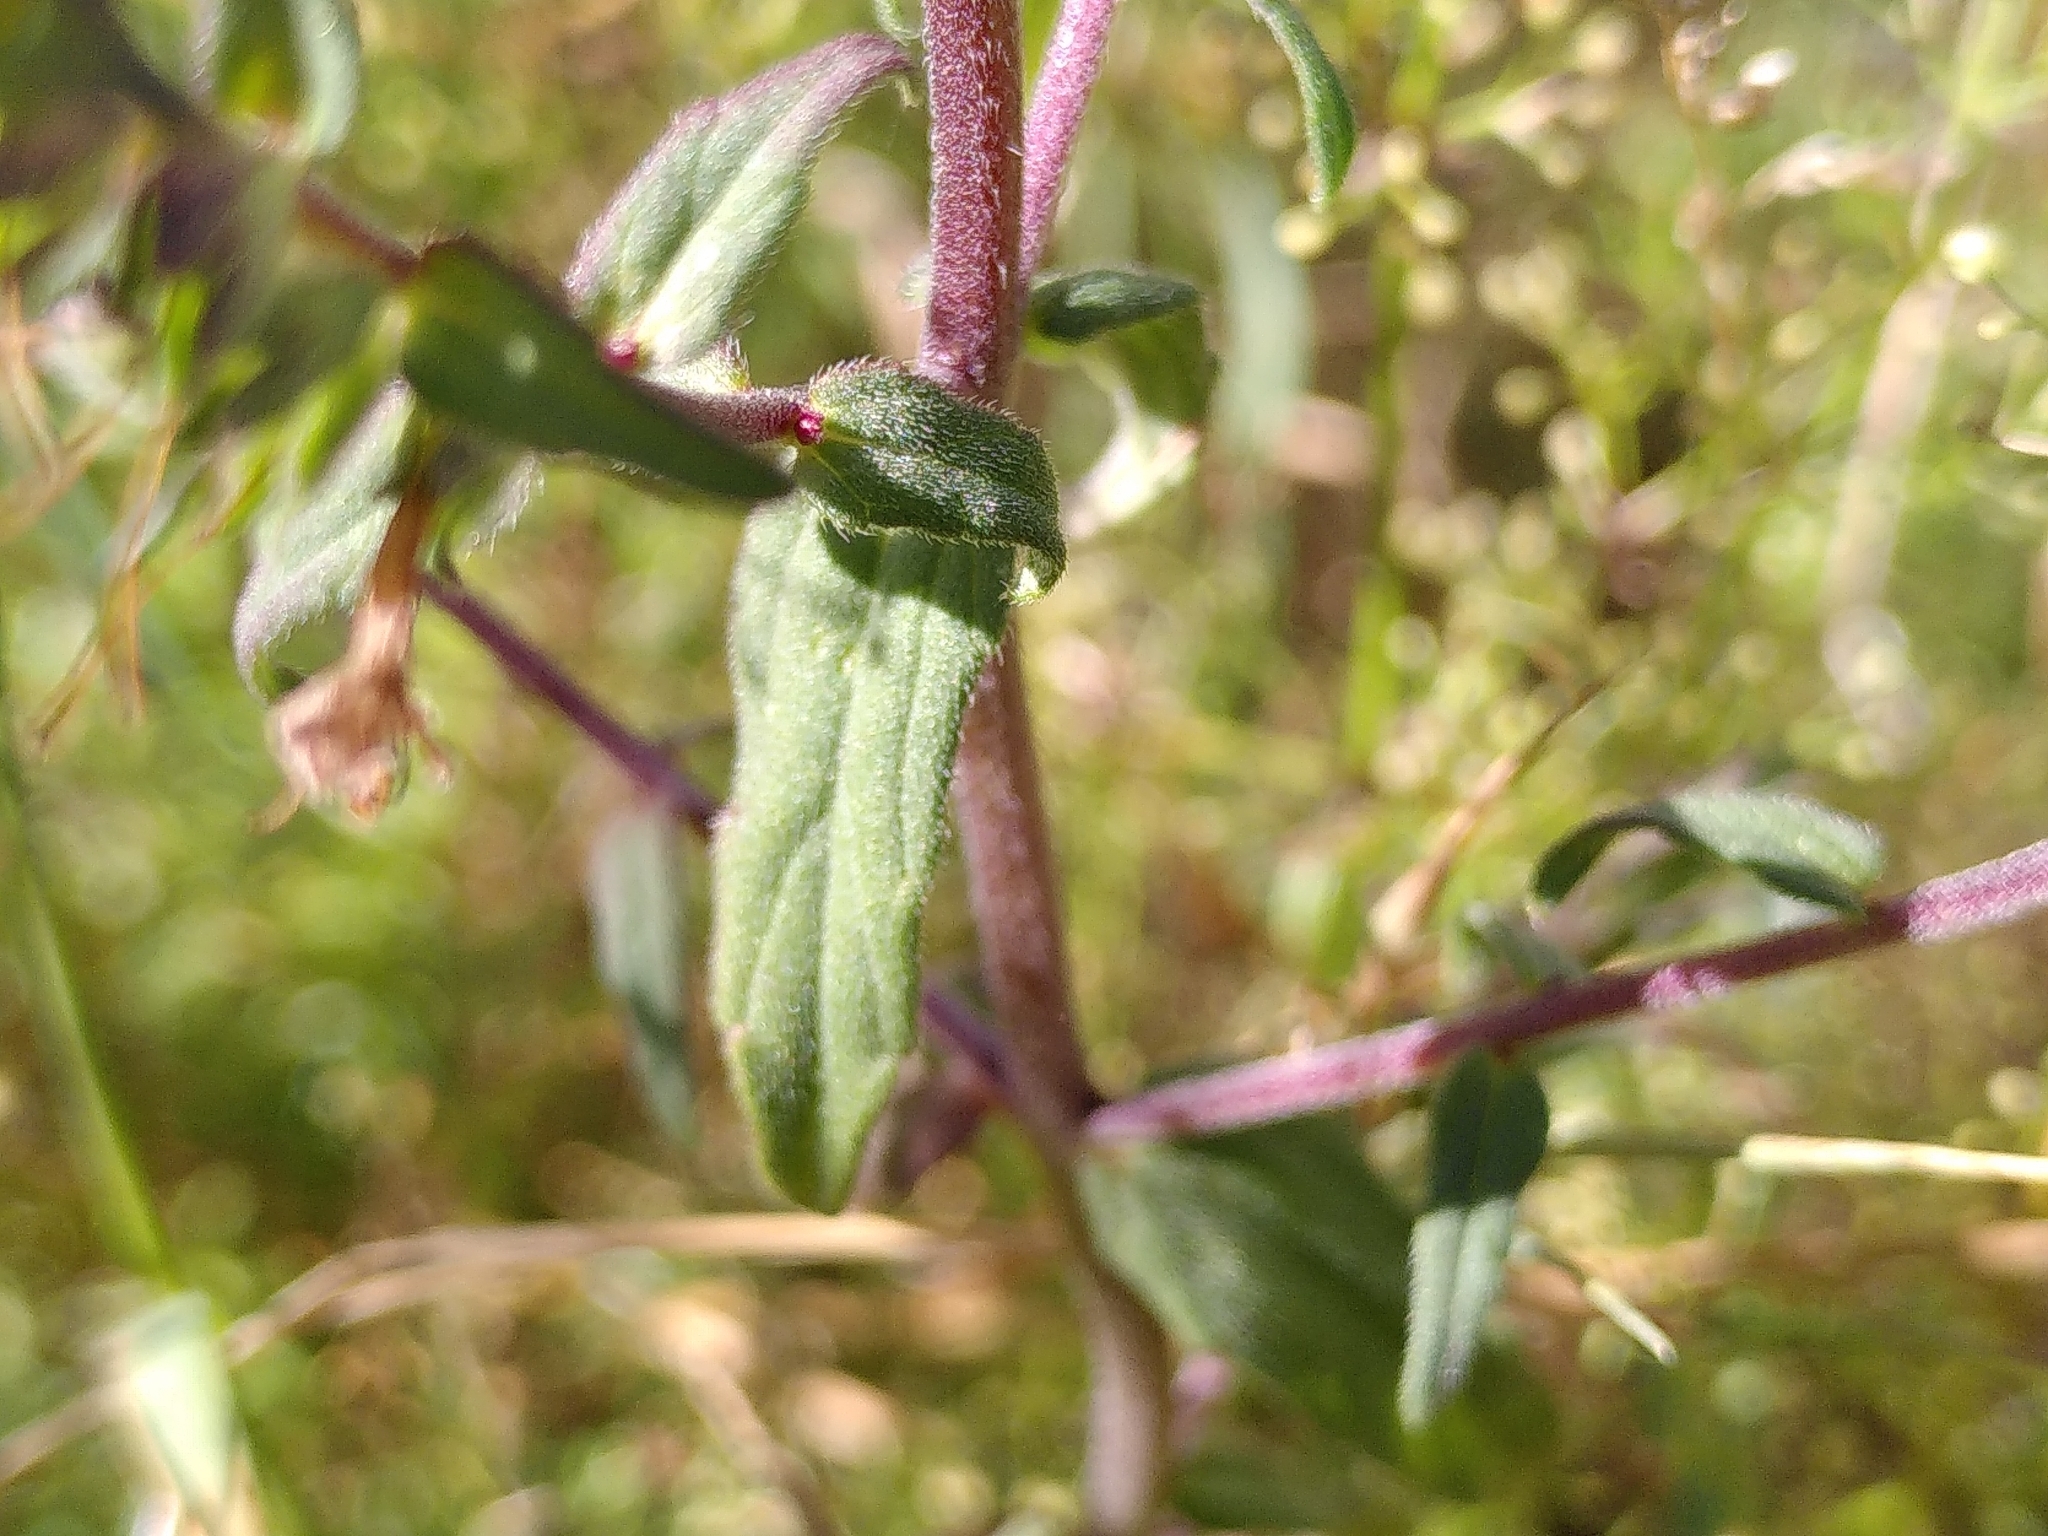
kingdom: Plantae
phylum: Tracheophyta
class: Magnoliopsida
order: Lamiales
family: Orobanchaceae
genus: Odontites
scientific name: Odontites vernus
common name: Red bartsia
